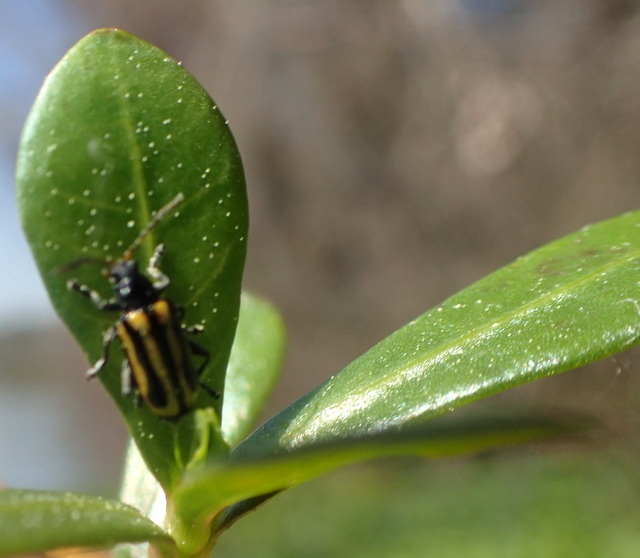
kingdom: Animalia
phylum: Arthropoda
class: Insecta
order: Coleoptera
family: Chrysomelidae
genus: Agasicles
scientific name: Agasicles hygrophila
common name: Alligatorweed flea beetle
